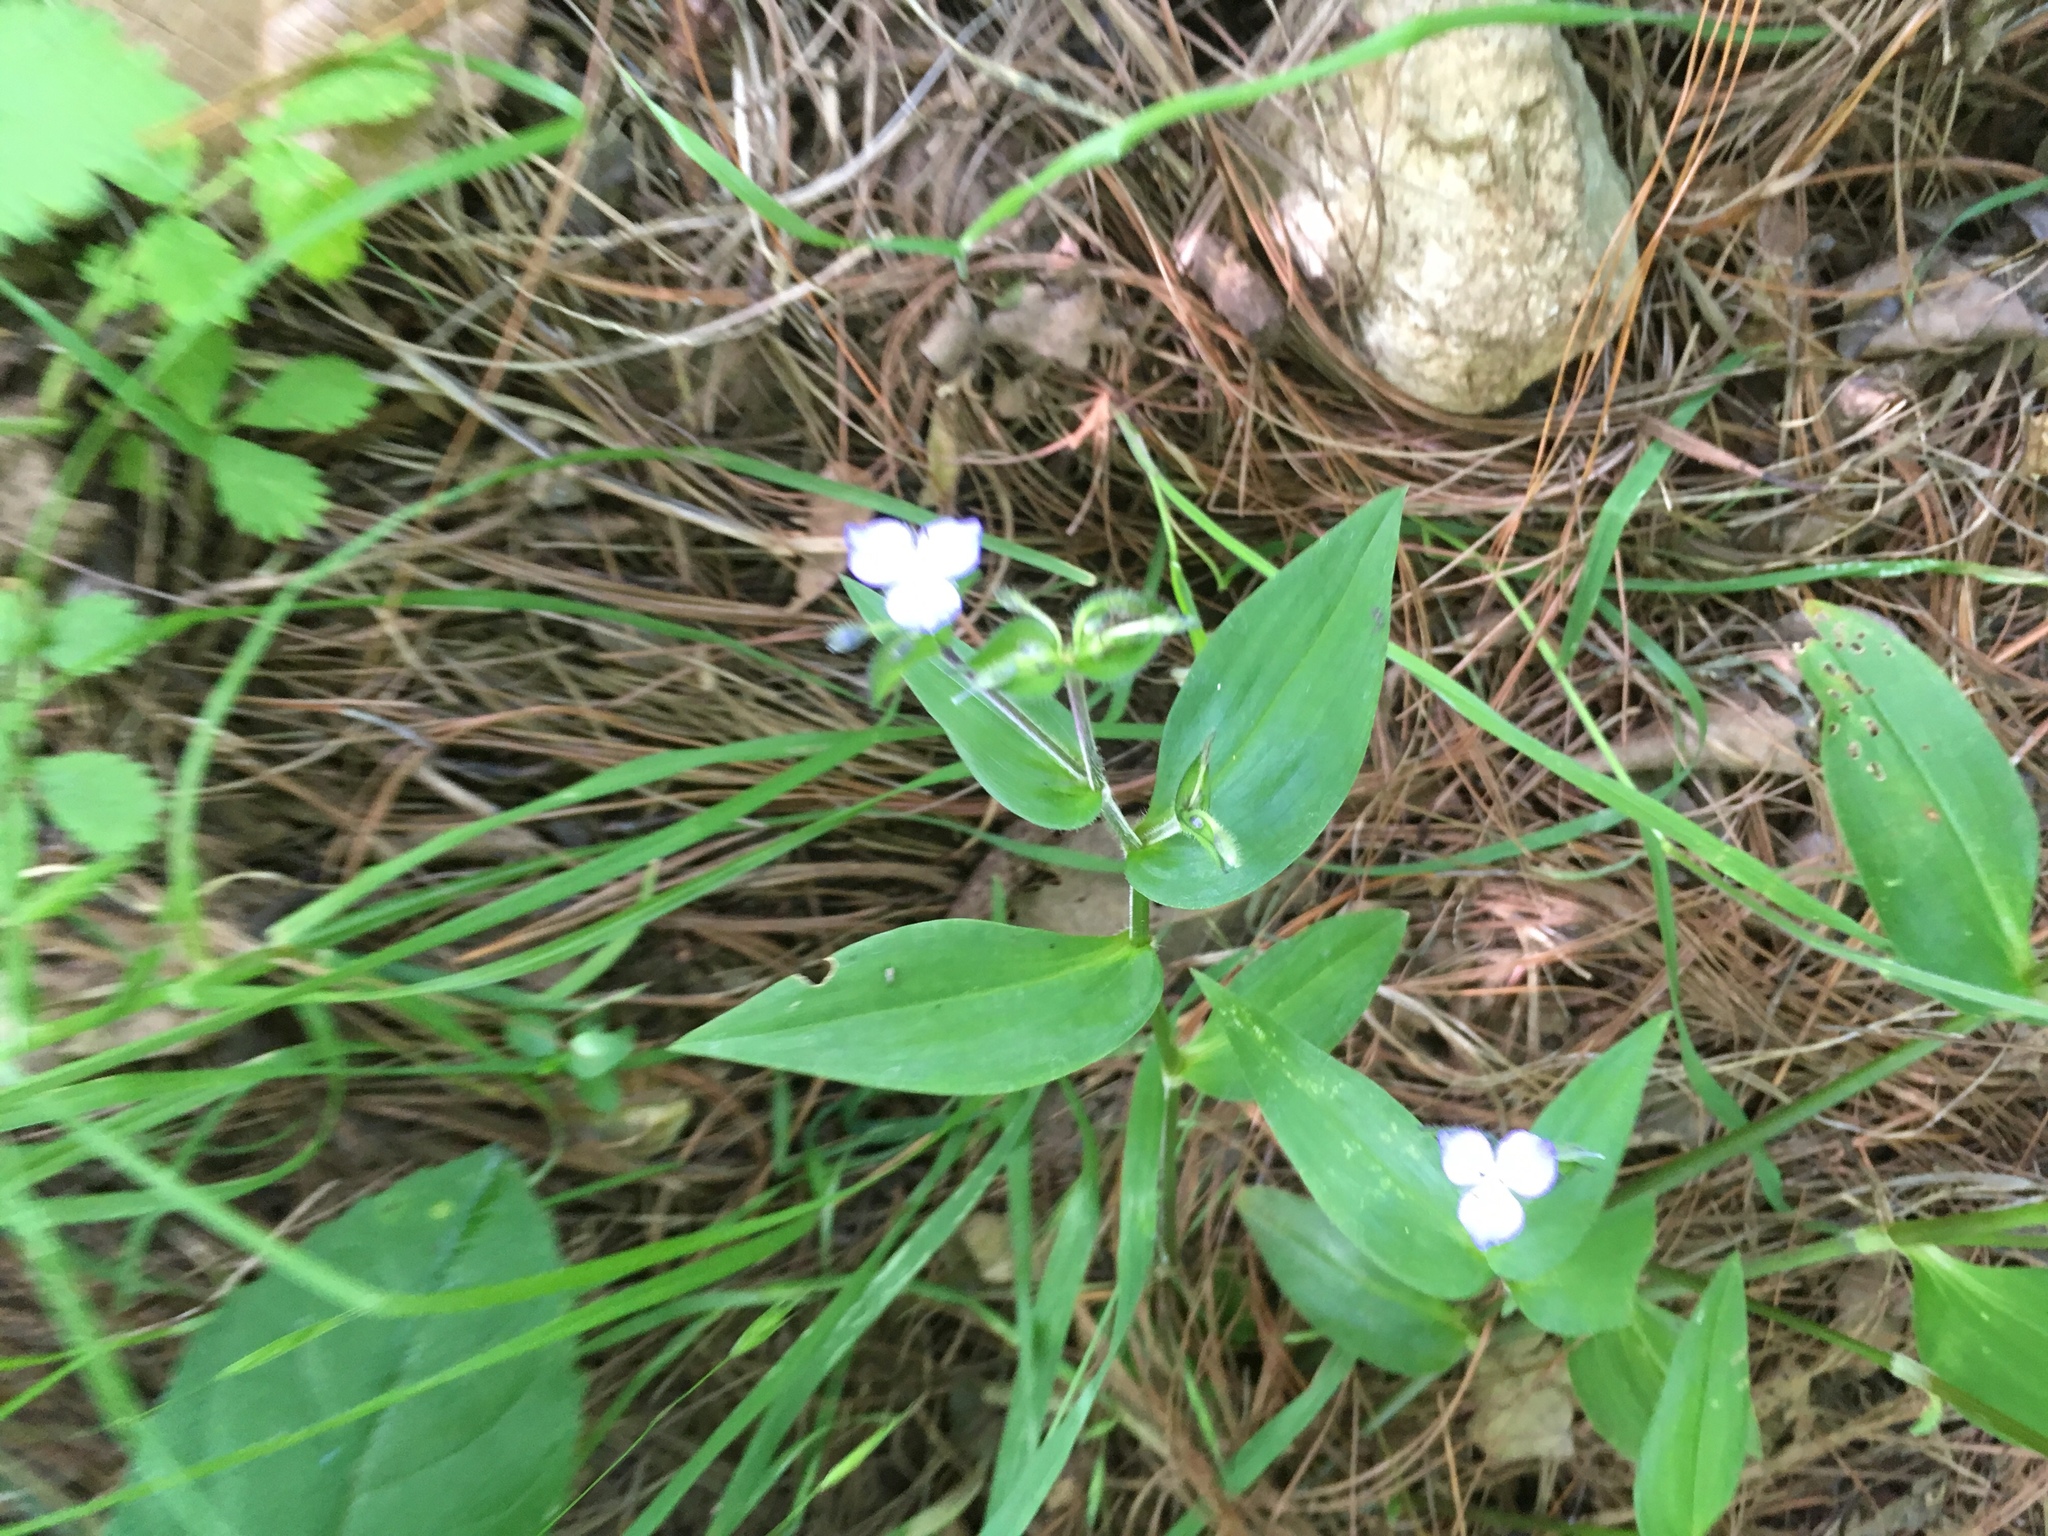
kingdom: Plantae
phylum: Tracheophyta
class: Liliopsida
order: Commelinales
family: Commelinaceae
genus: Tradescantia
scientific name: Tradescantia commelinoides
